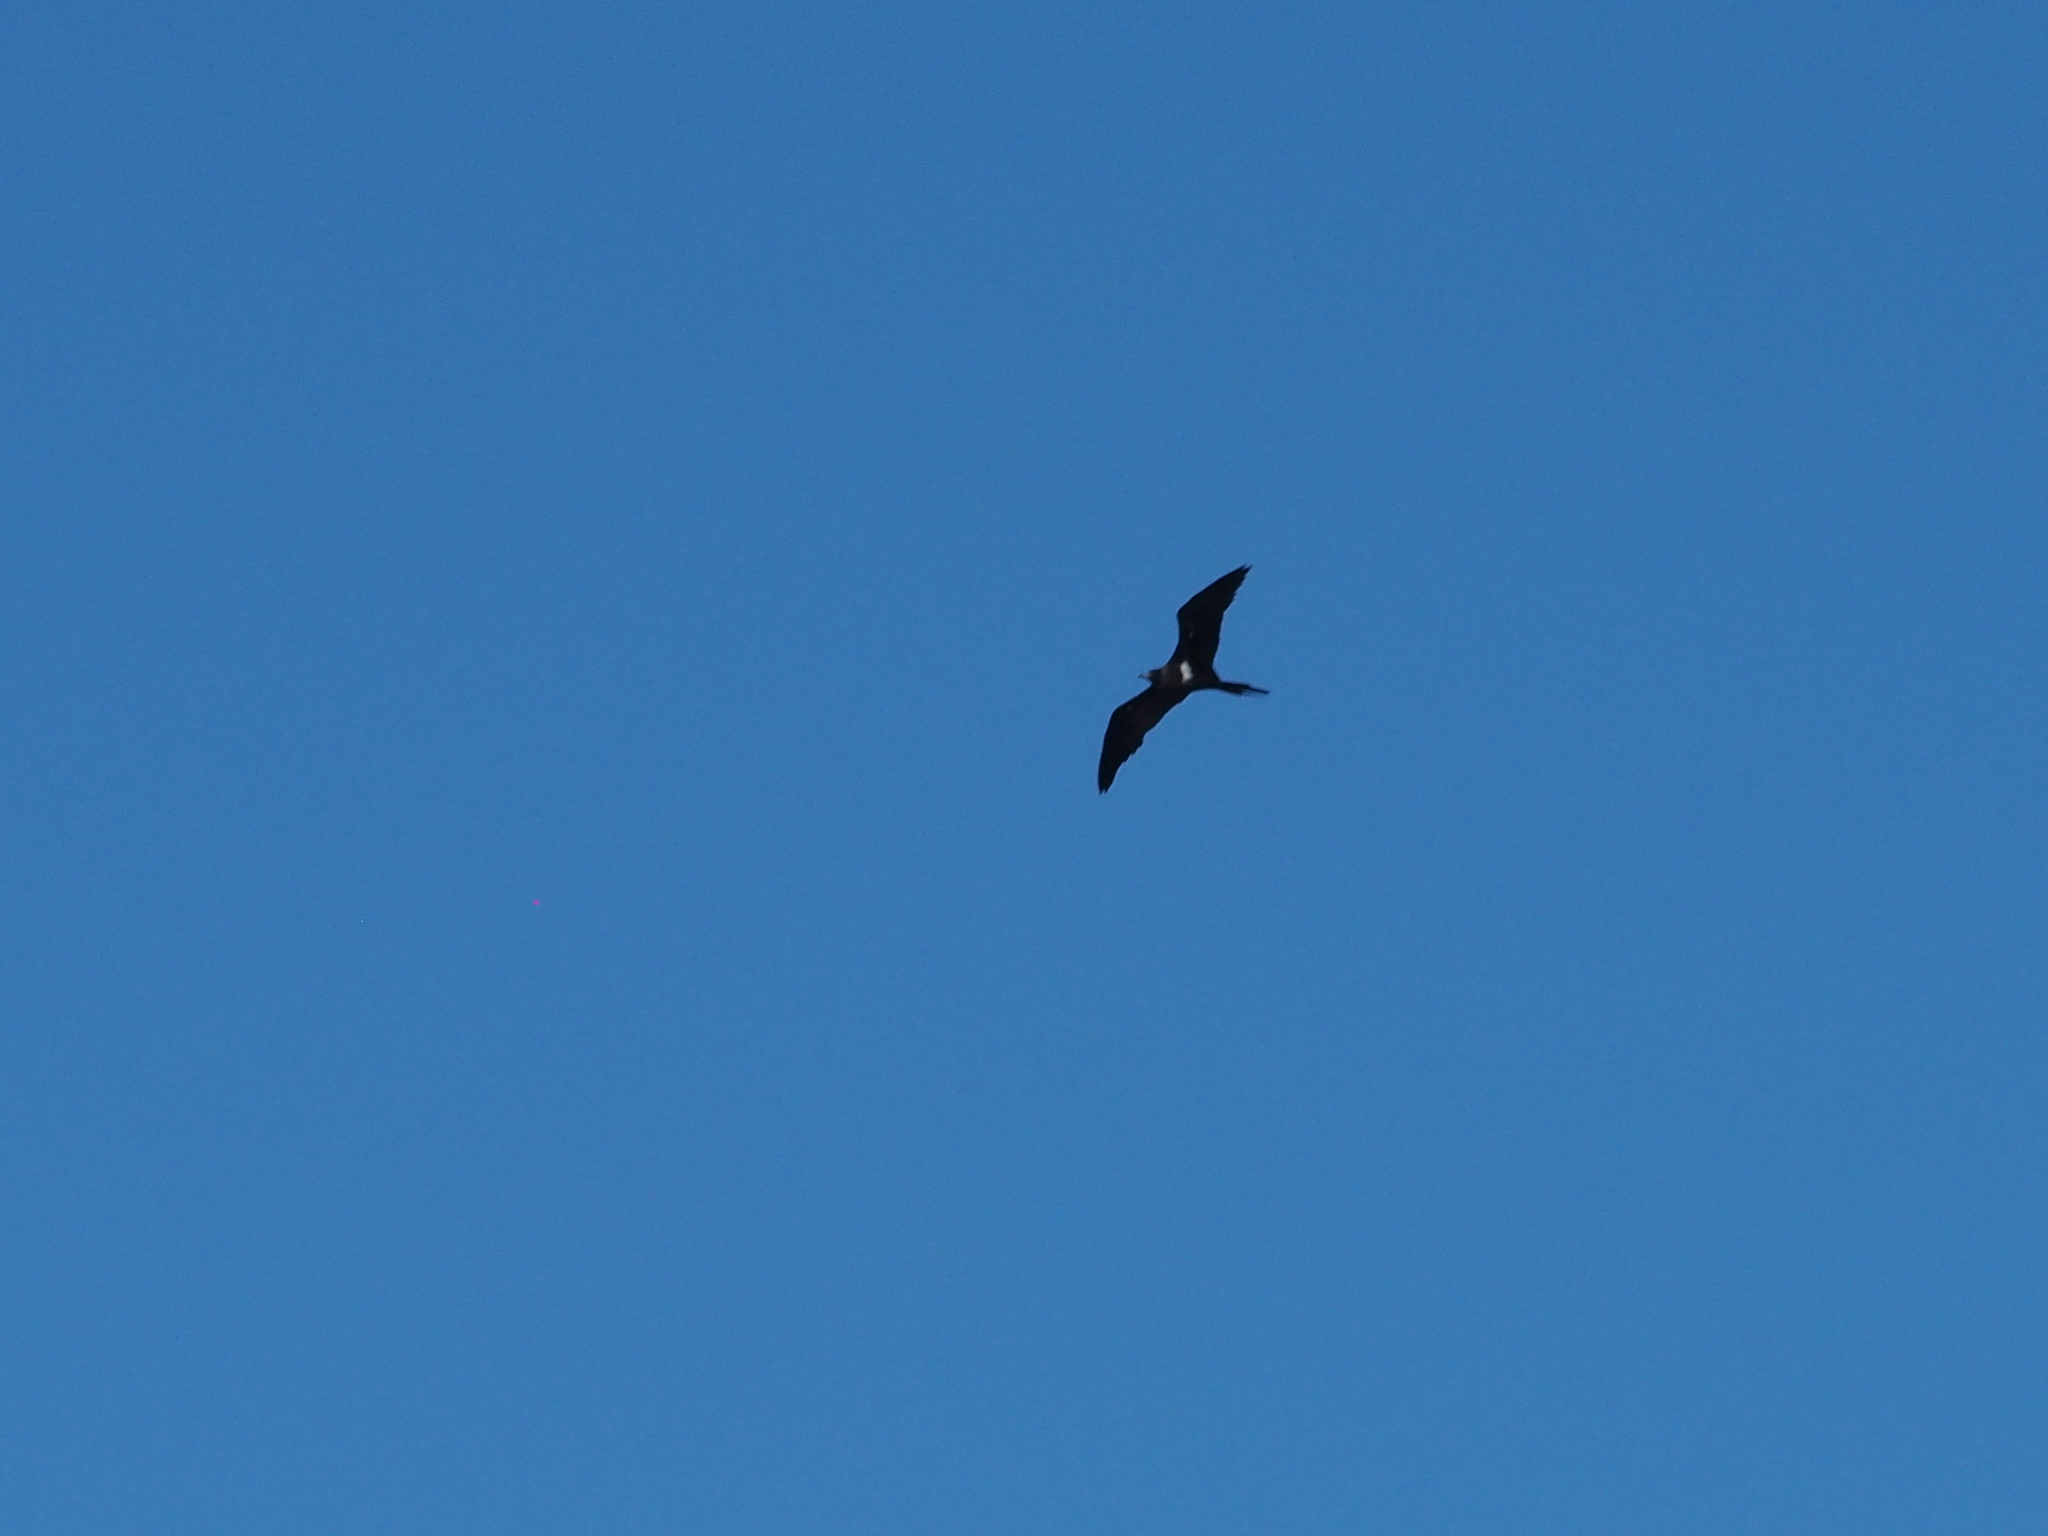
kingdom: Animalia
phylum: Chordata
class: Aves
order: Suliformes
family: Fregatidae
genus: Fregata
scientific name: Fregata ariel
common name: Lesser frigatebird
